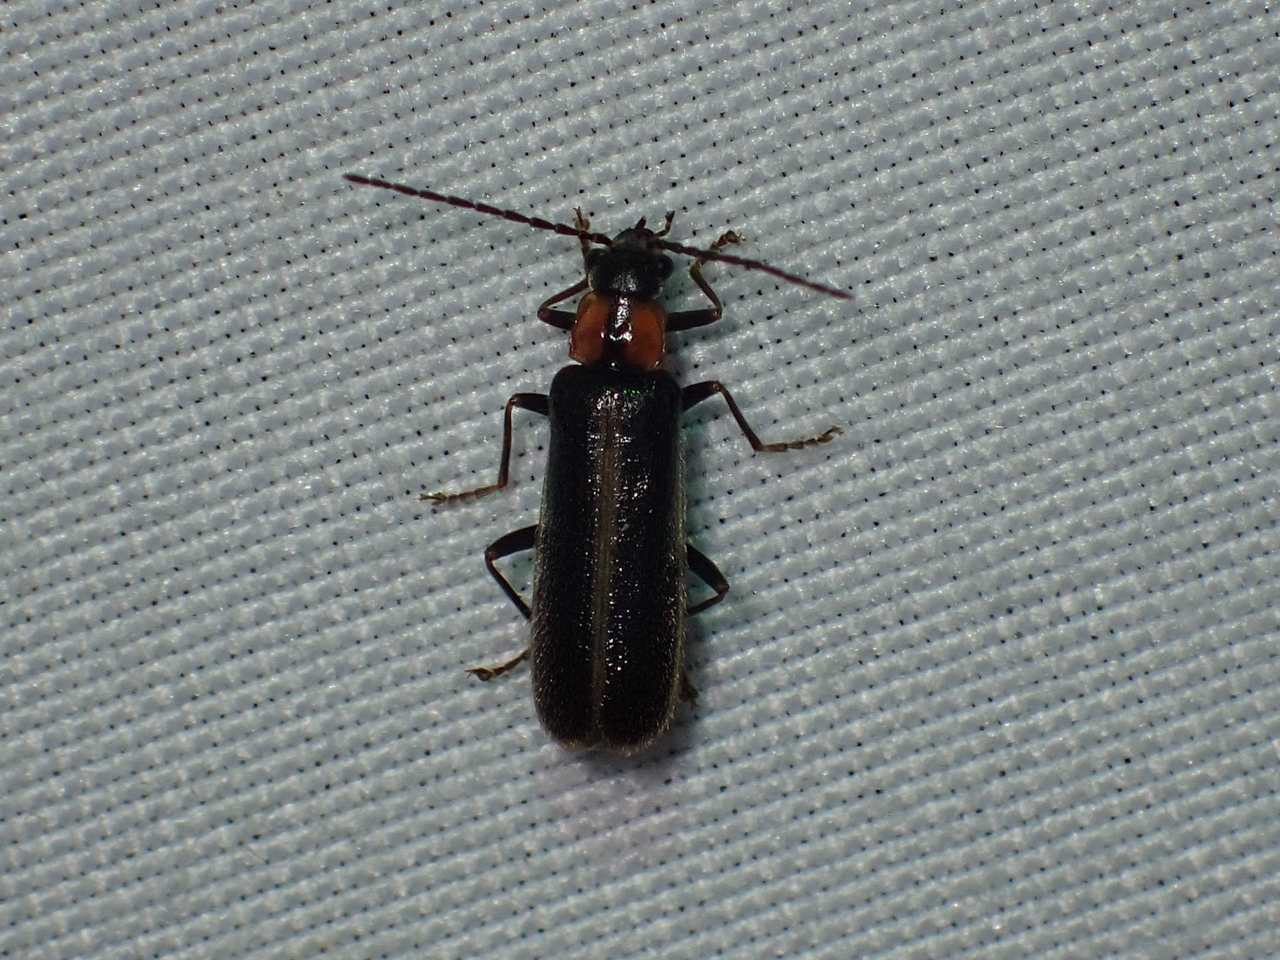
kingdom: Animalia
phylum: Arthropoda
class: Insecta
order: Coleoptera
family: Cantharidae
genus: Rhagonycha
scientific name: Rhagonycha recta
